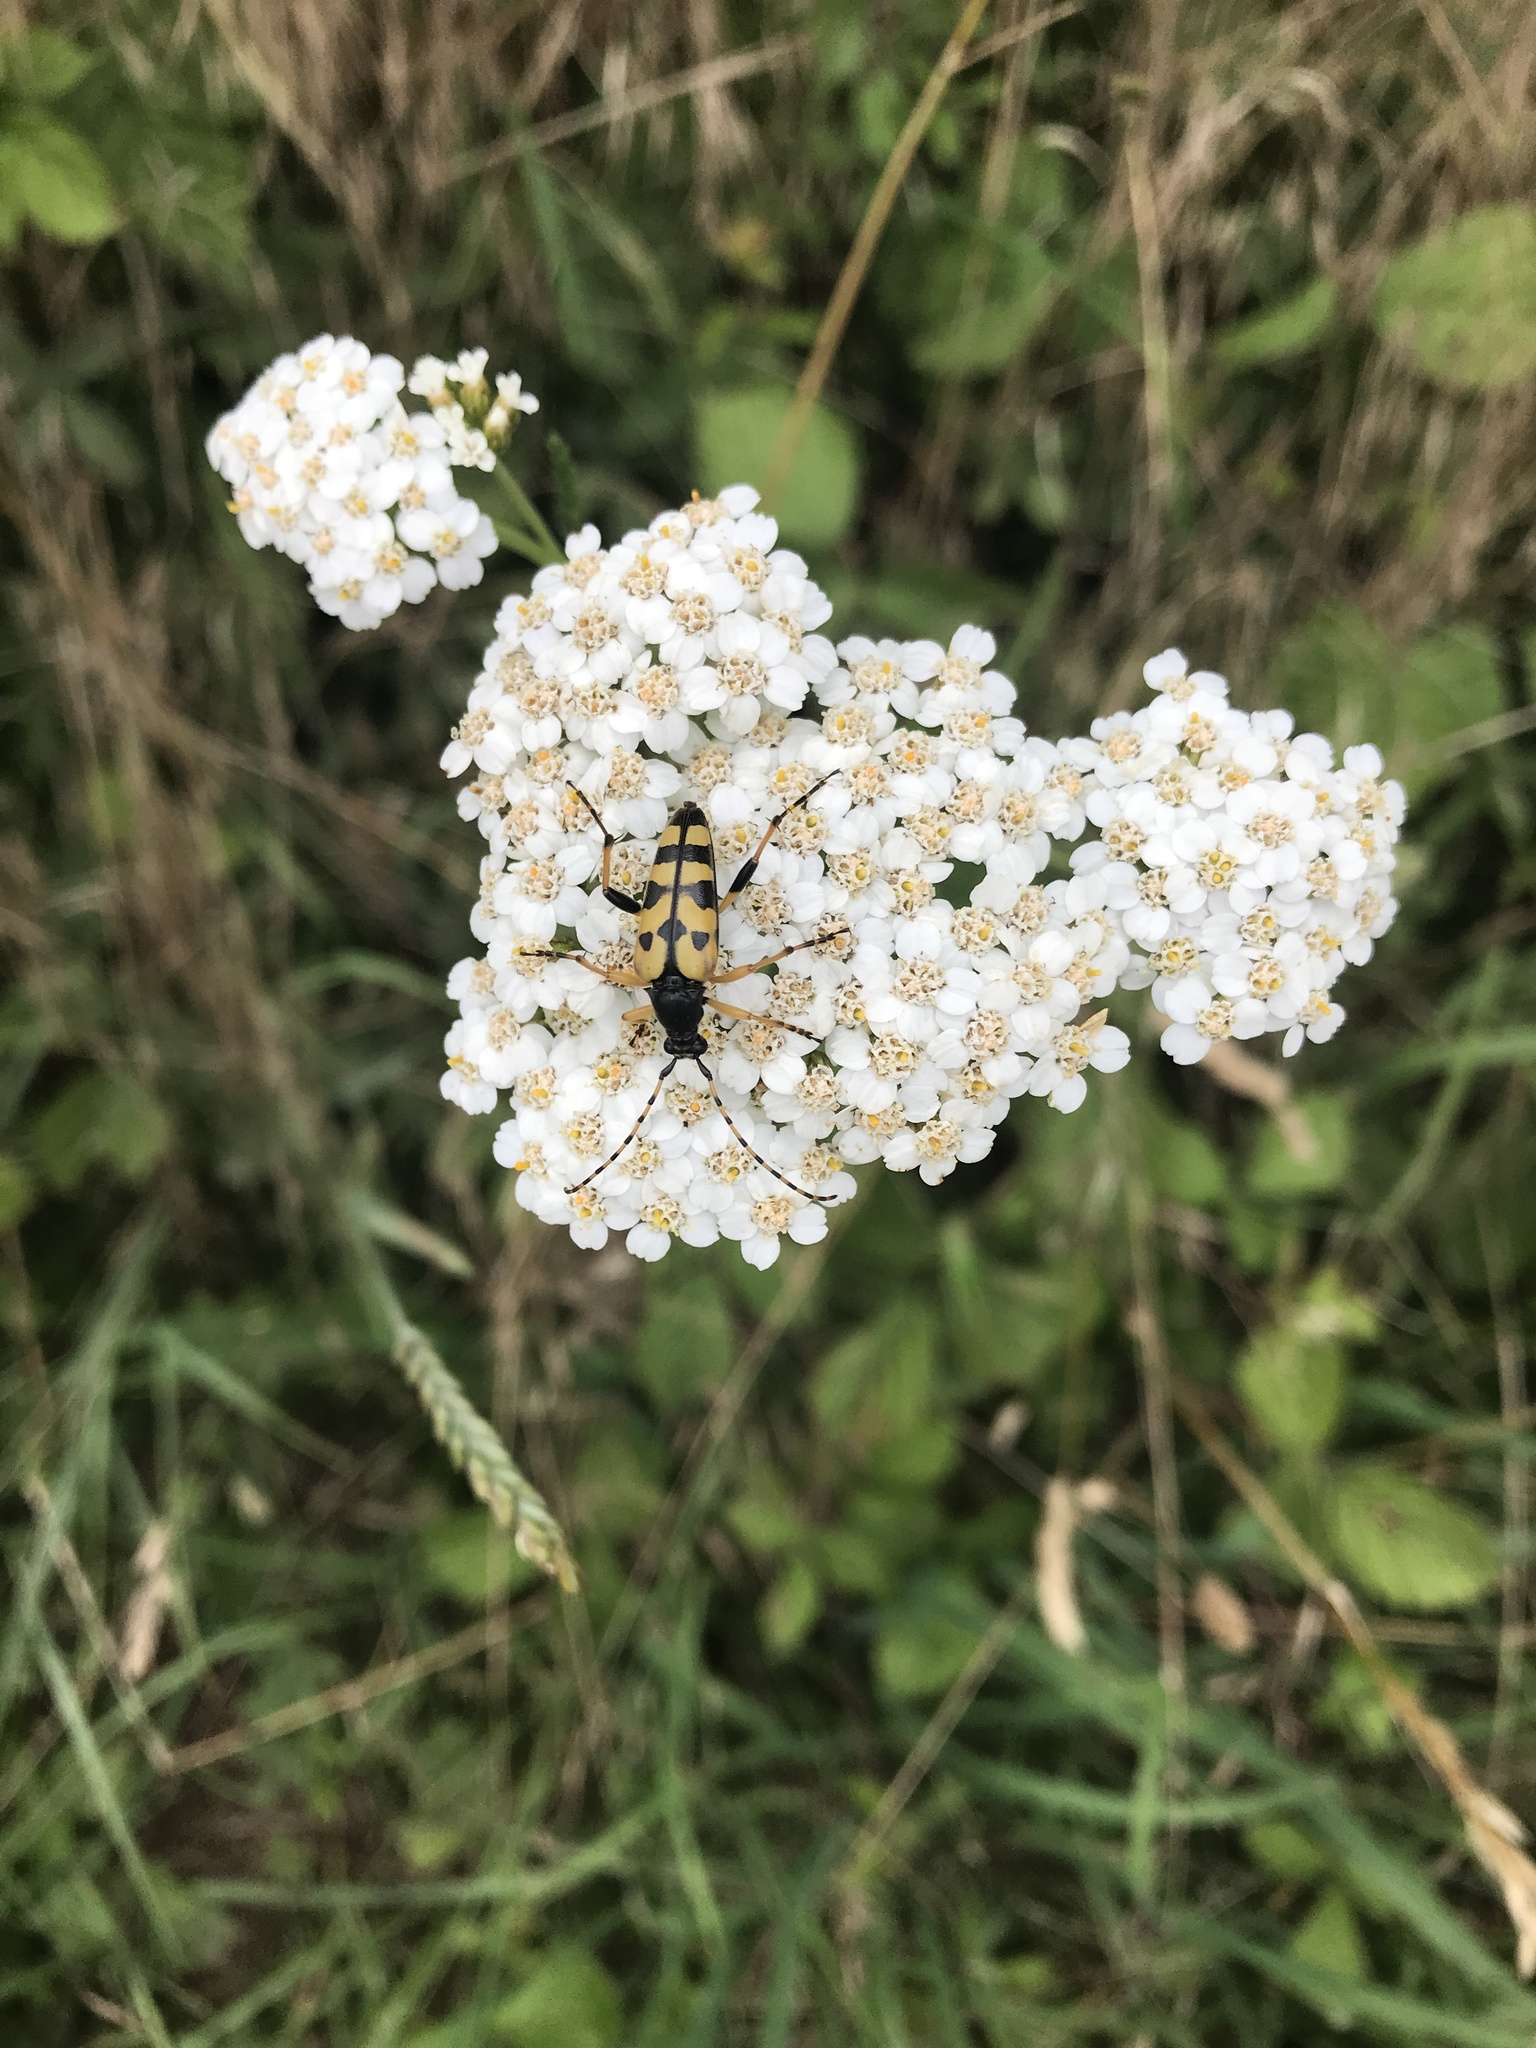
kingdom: Animalia
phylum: Arthropoda
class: Insecta
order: Coleoptera
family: Cerambycidae
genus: Rutpela
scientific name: Rutpela maculata
